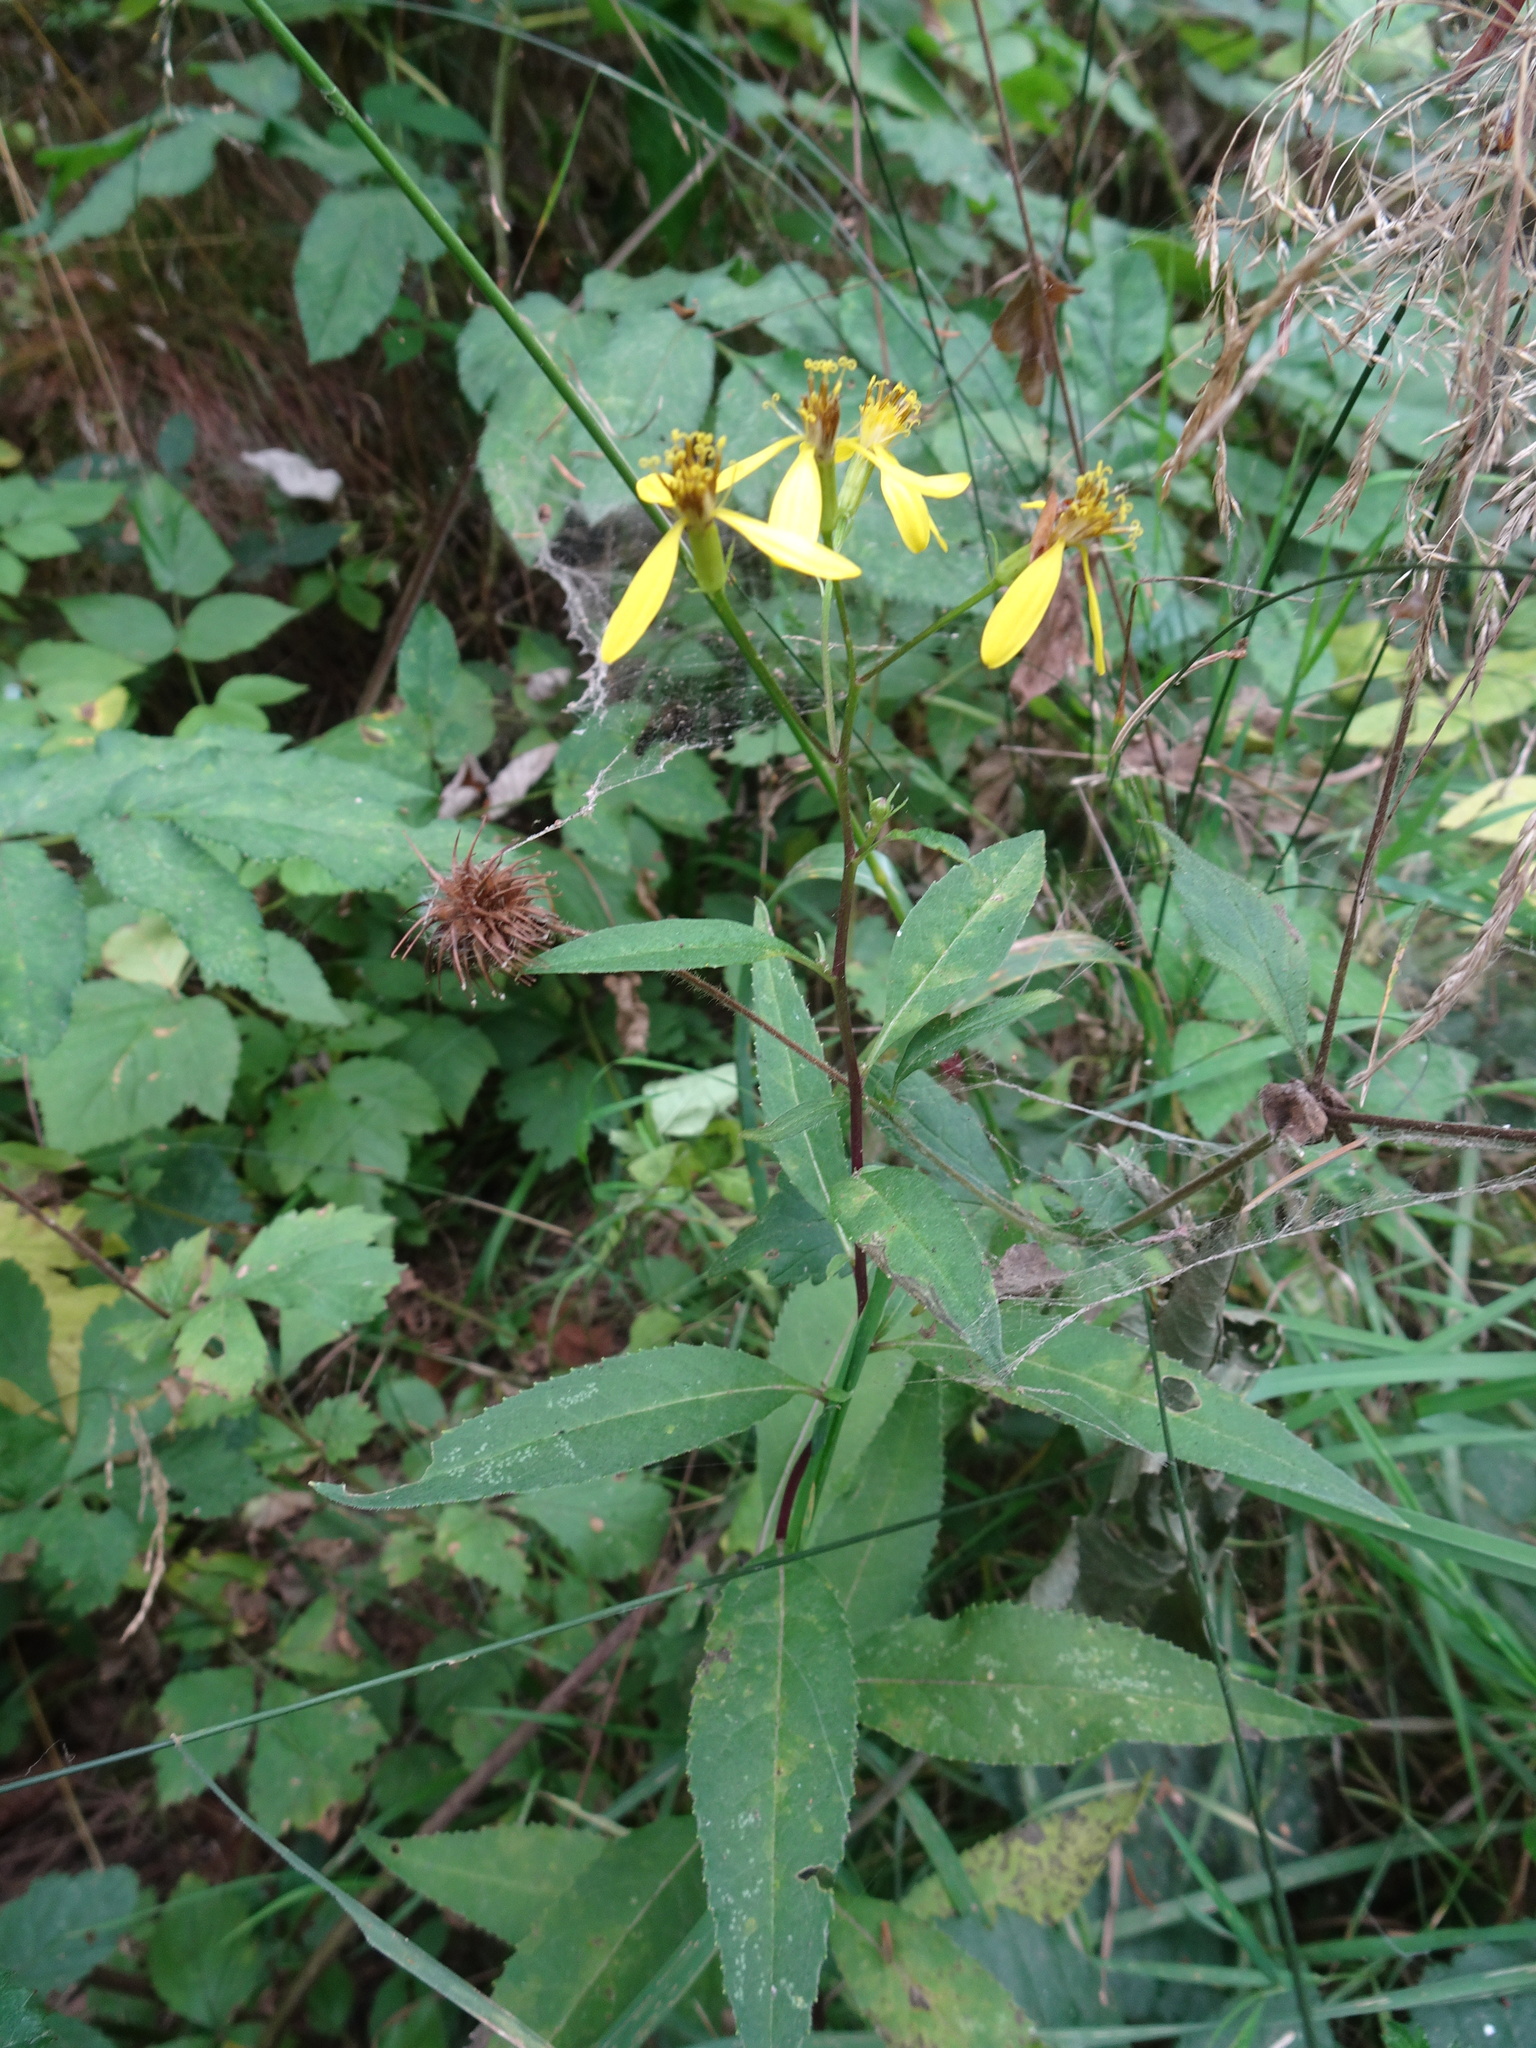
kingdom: Plantae
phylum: Tracheophyta
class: Magnoliopsida
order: Asterales
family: Asteraceae
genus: Senecio
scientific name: Senecio ovatus
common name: Wood ragwort
